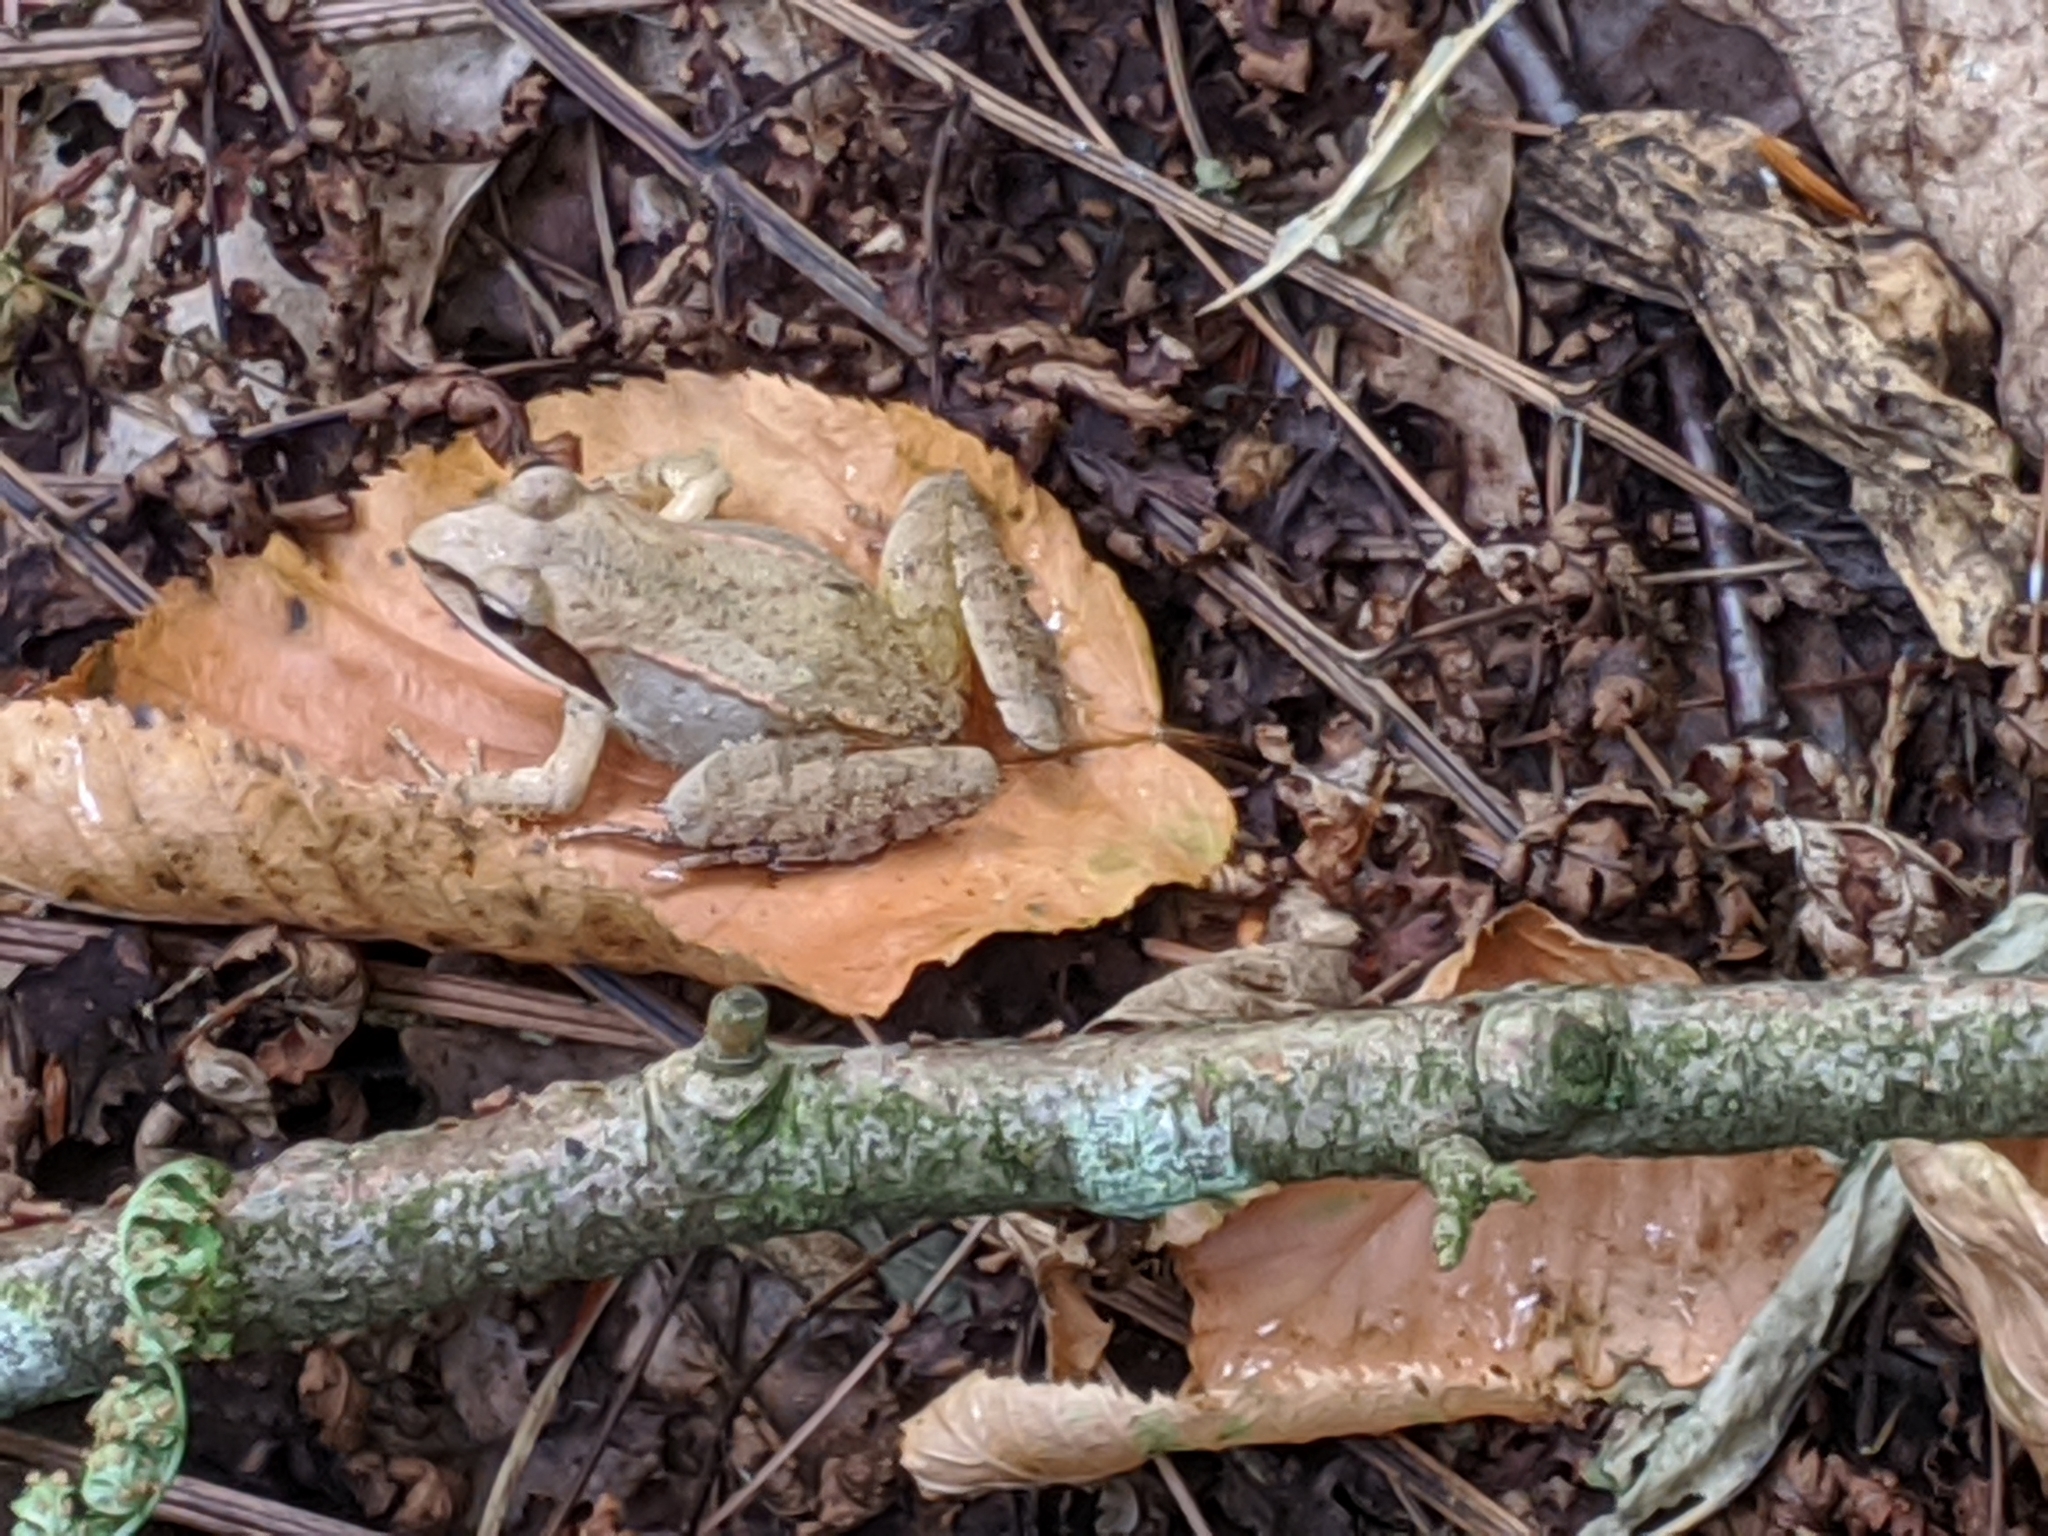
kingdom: Animalia
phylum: Chordata
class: Amphibia
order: Anura
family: Ranidae
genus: Lithobates
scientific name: Lithobates sylvaticus
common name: Wood frog
